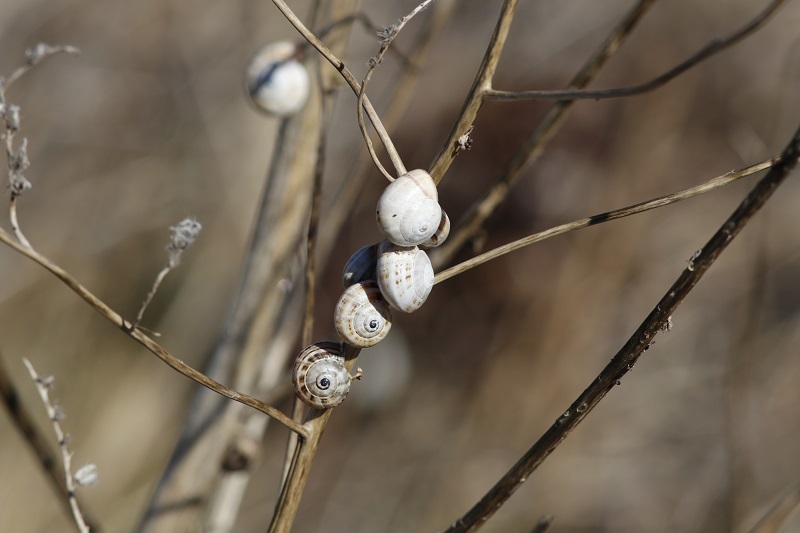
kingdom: Animalia
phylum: Mollusca
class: Gastropoda
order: Stylommatophora
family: Helicidae
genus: Theba
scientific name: Theba pisana
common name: White snail
